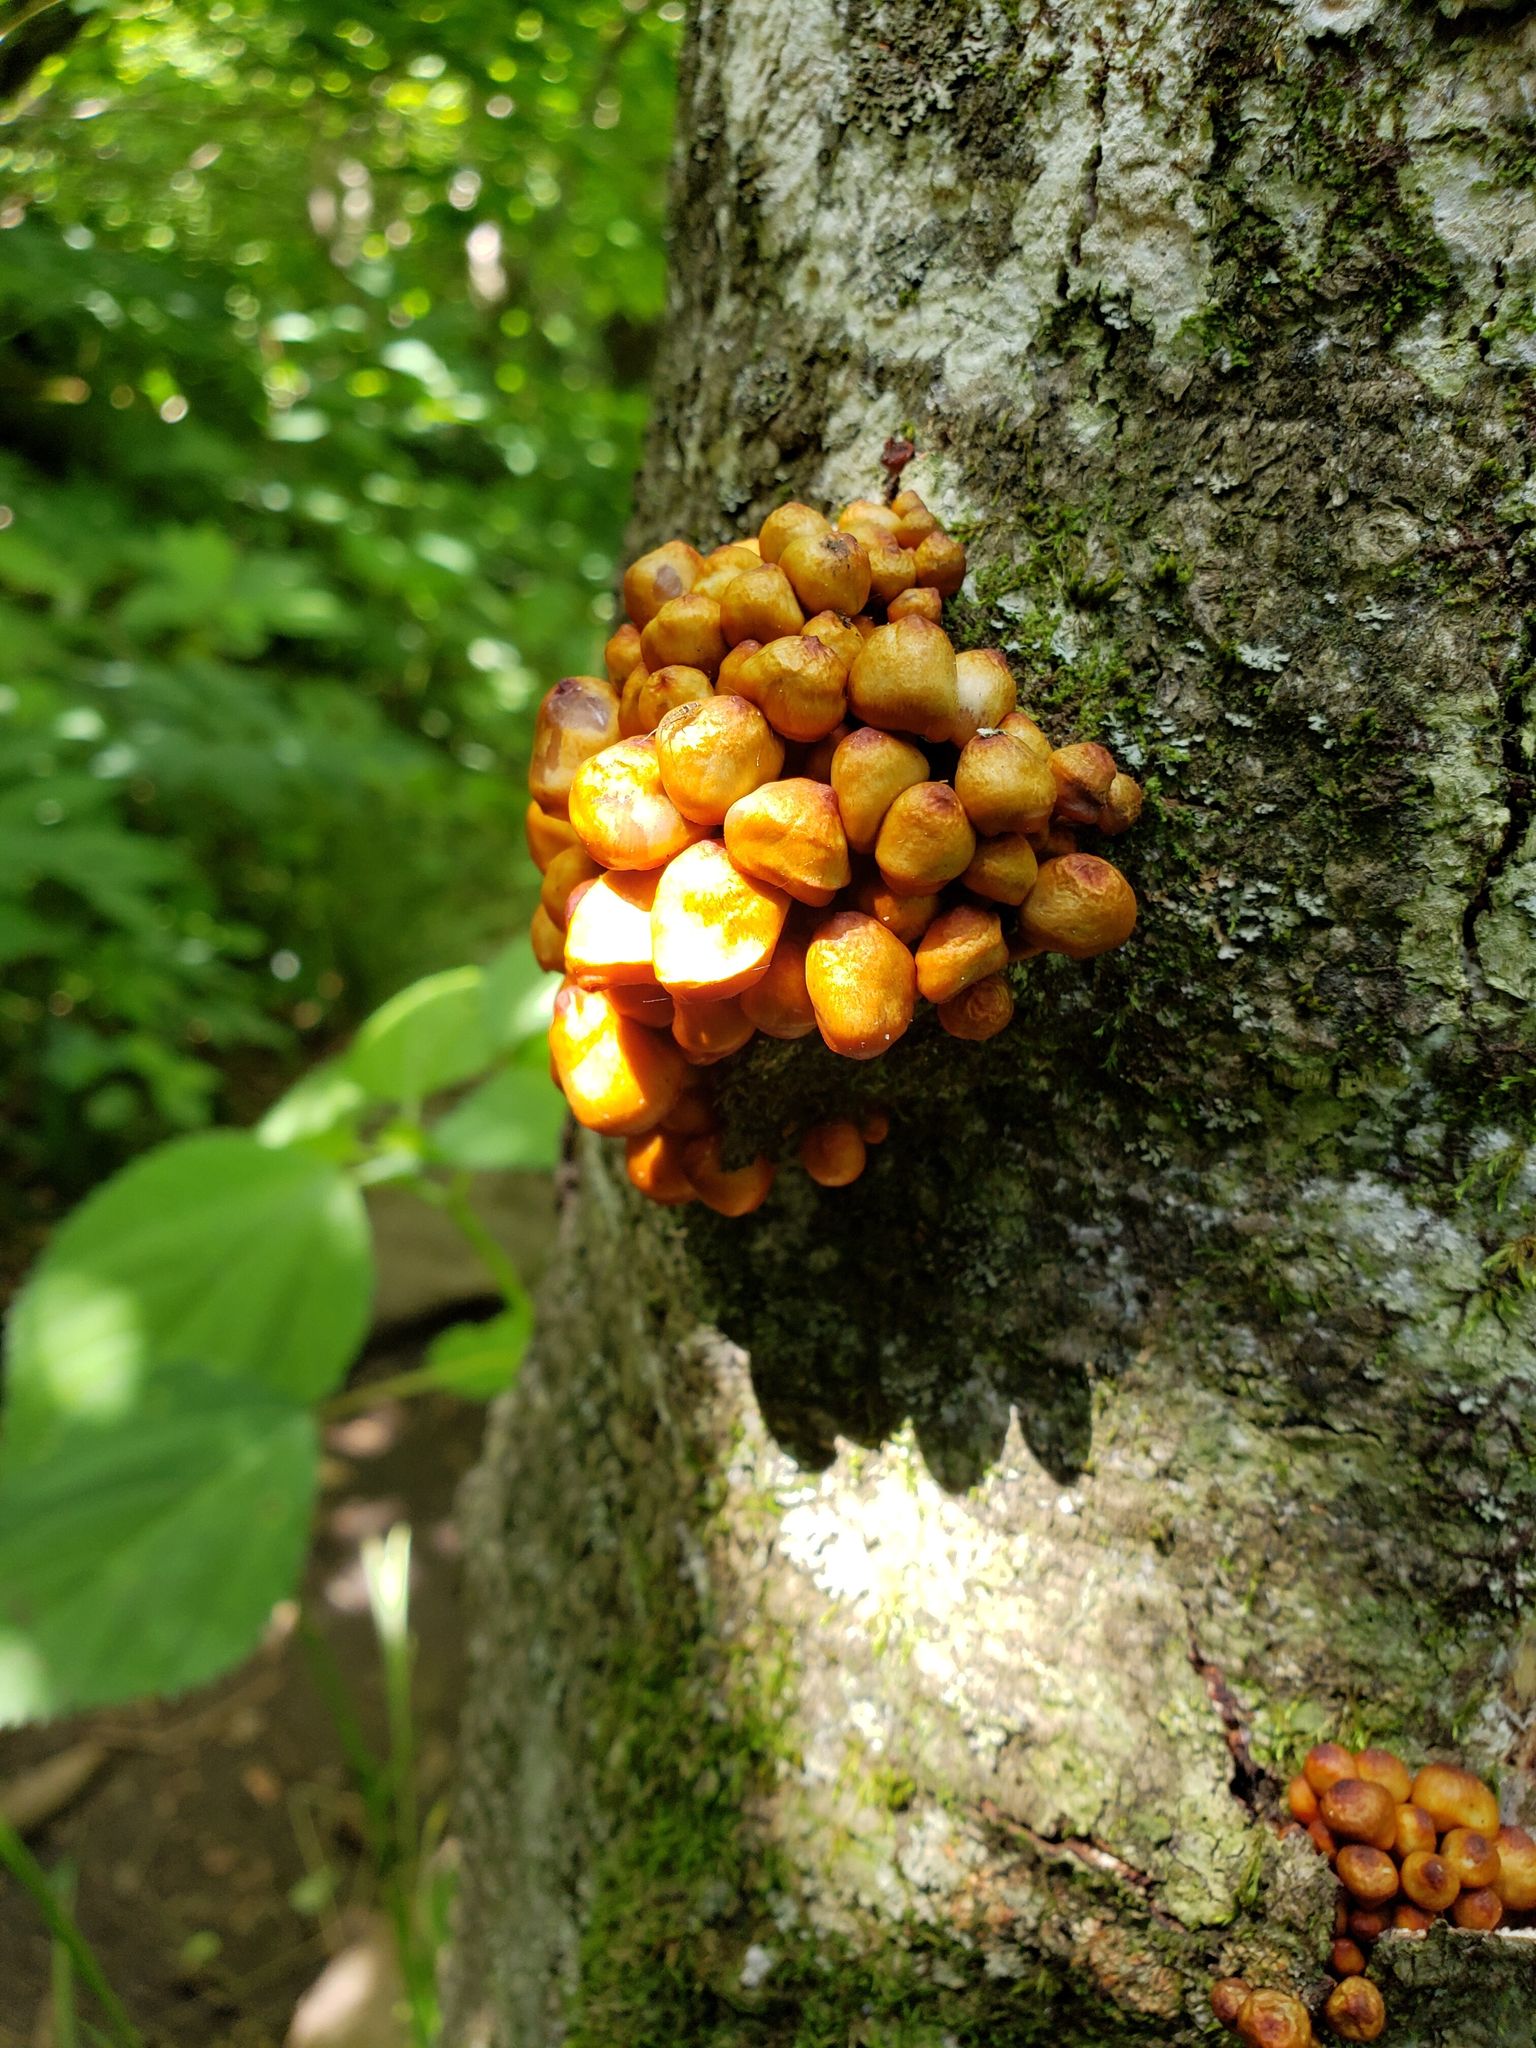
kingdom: Fungi
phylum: Basidiomycota
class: Agaricomycetes
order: Agaricales
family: Mycenaceae
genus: Mycena
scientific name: Mycena leaiana
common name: Orange mycena
